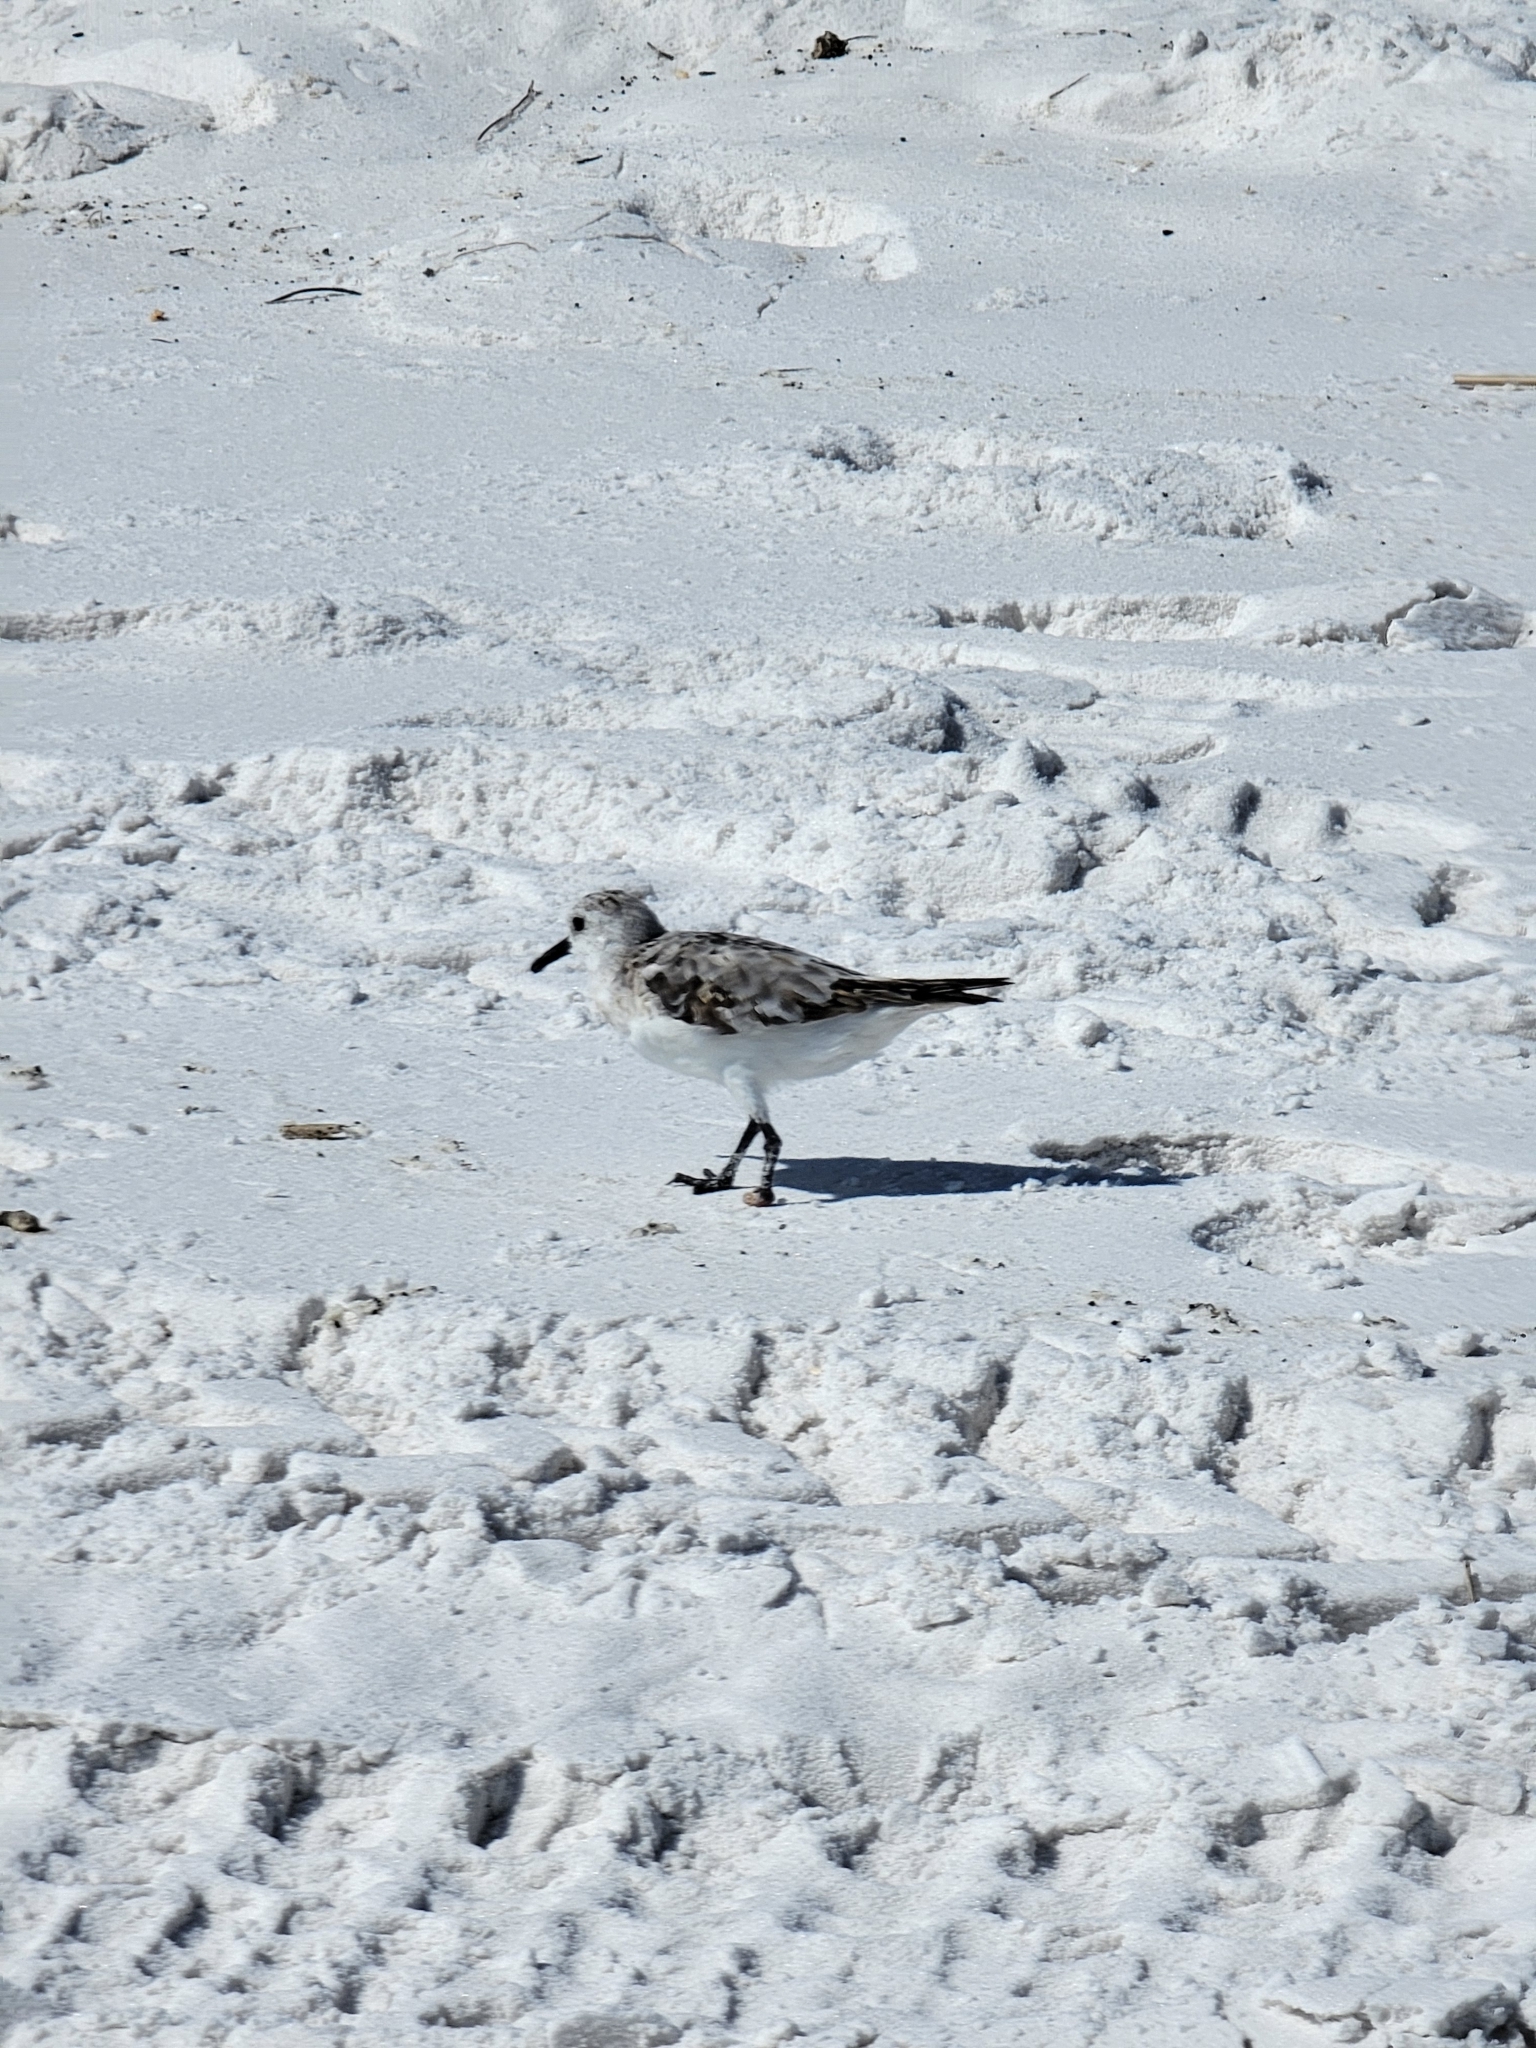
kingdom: Animalia
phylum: Chordata
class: Aves
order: Charadriiformes
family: Scolopacidae
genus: Calidris
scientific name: Calidris alba
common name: Sanderling
